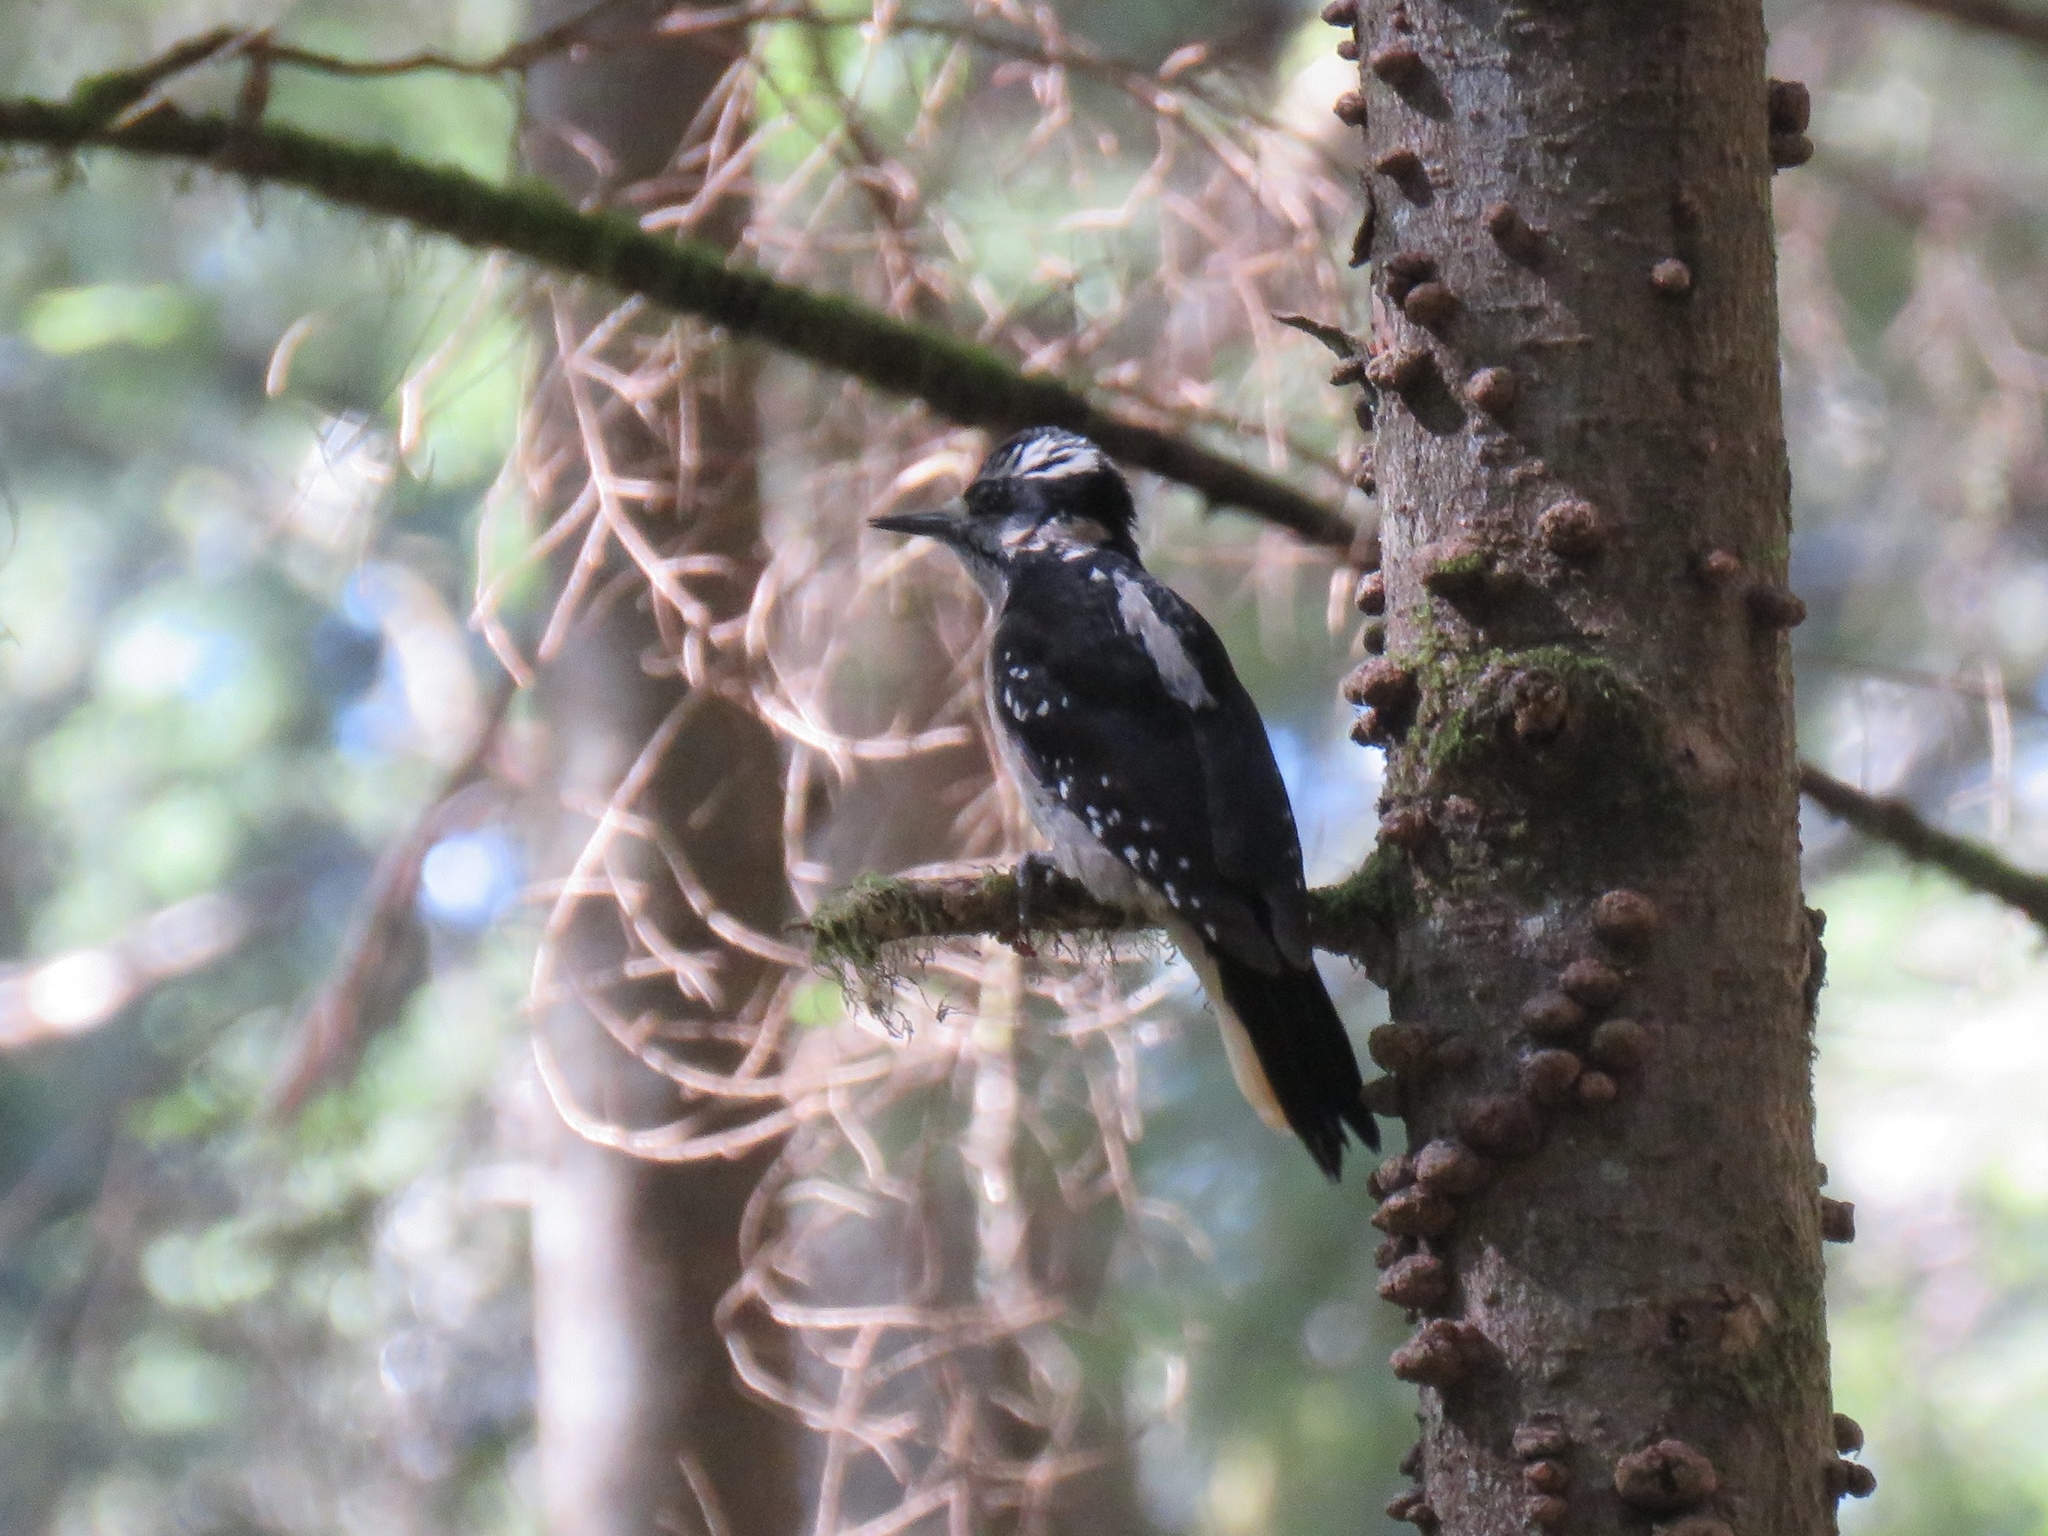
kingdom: Animalia
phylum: Chordata
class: Aves
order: Piciformes
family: Picidae
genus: Leuconotopicus
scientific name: Leuconotopicus villosus
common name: Hairy woodpecker
